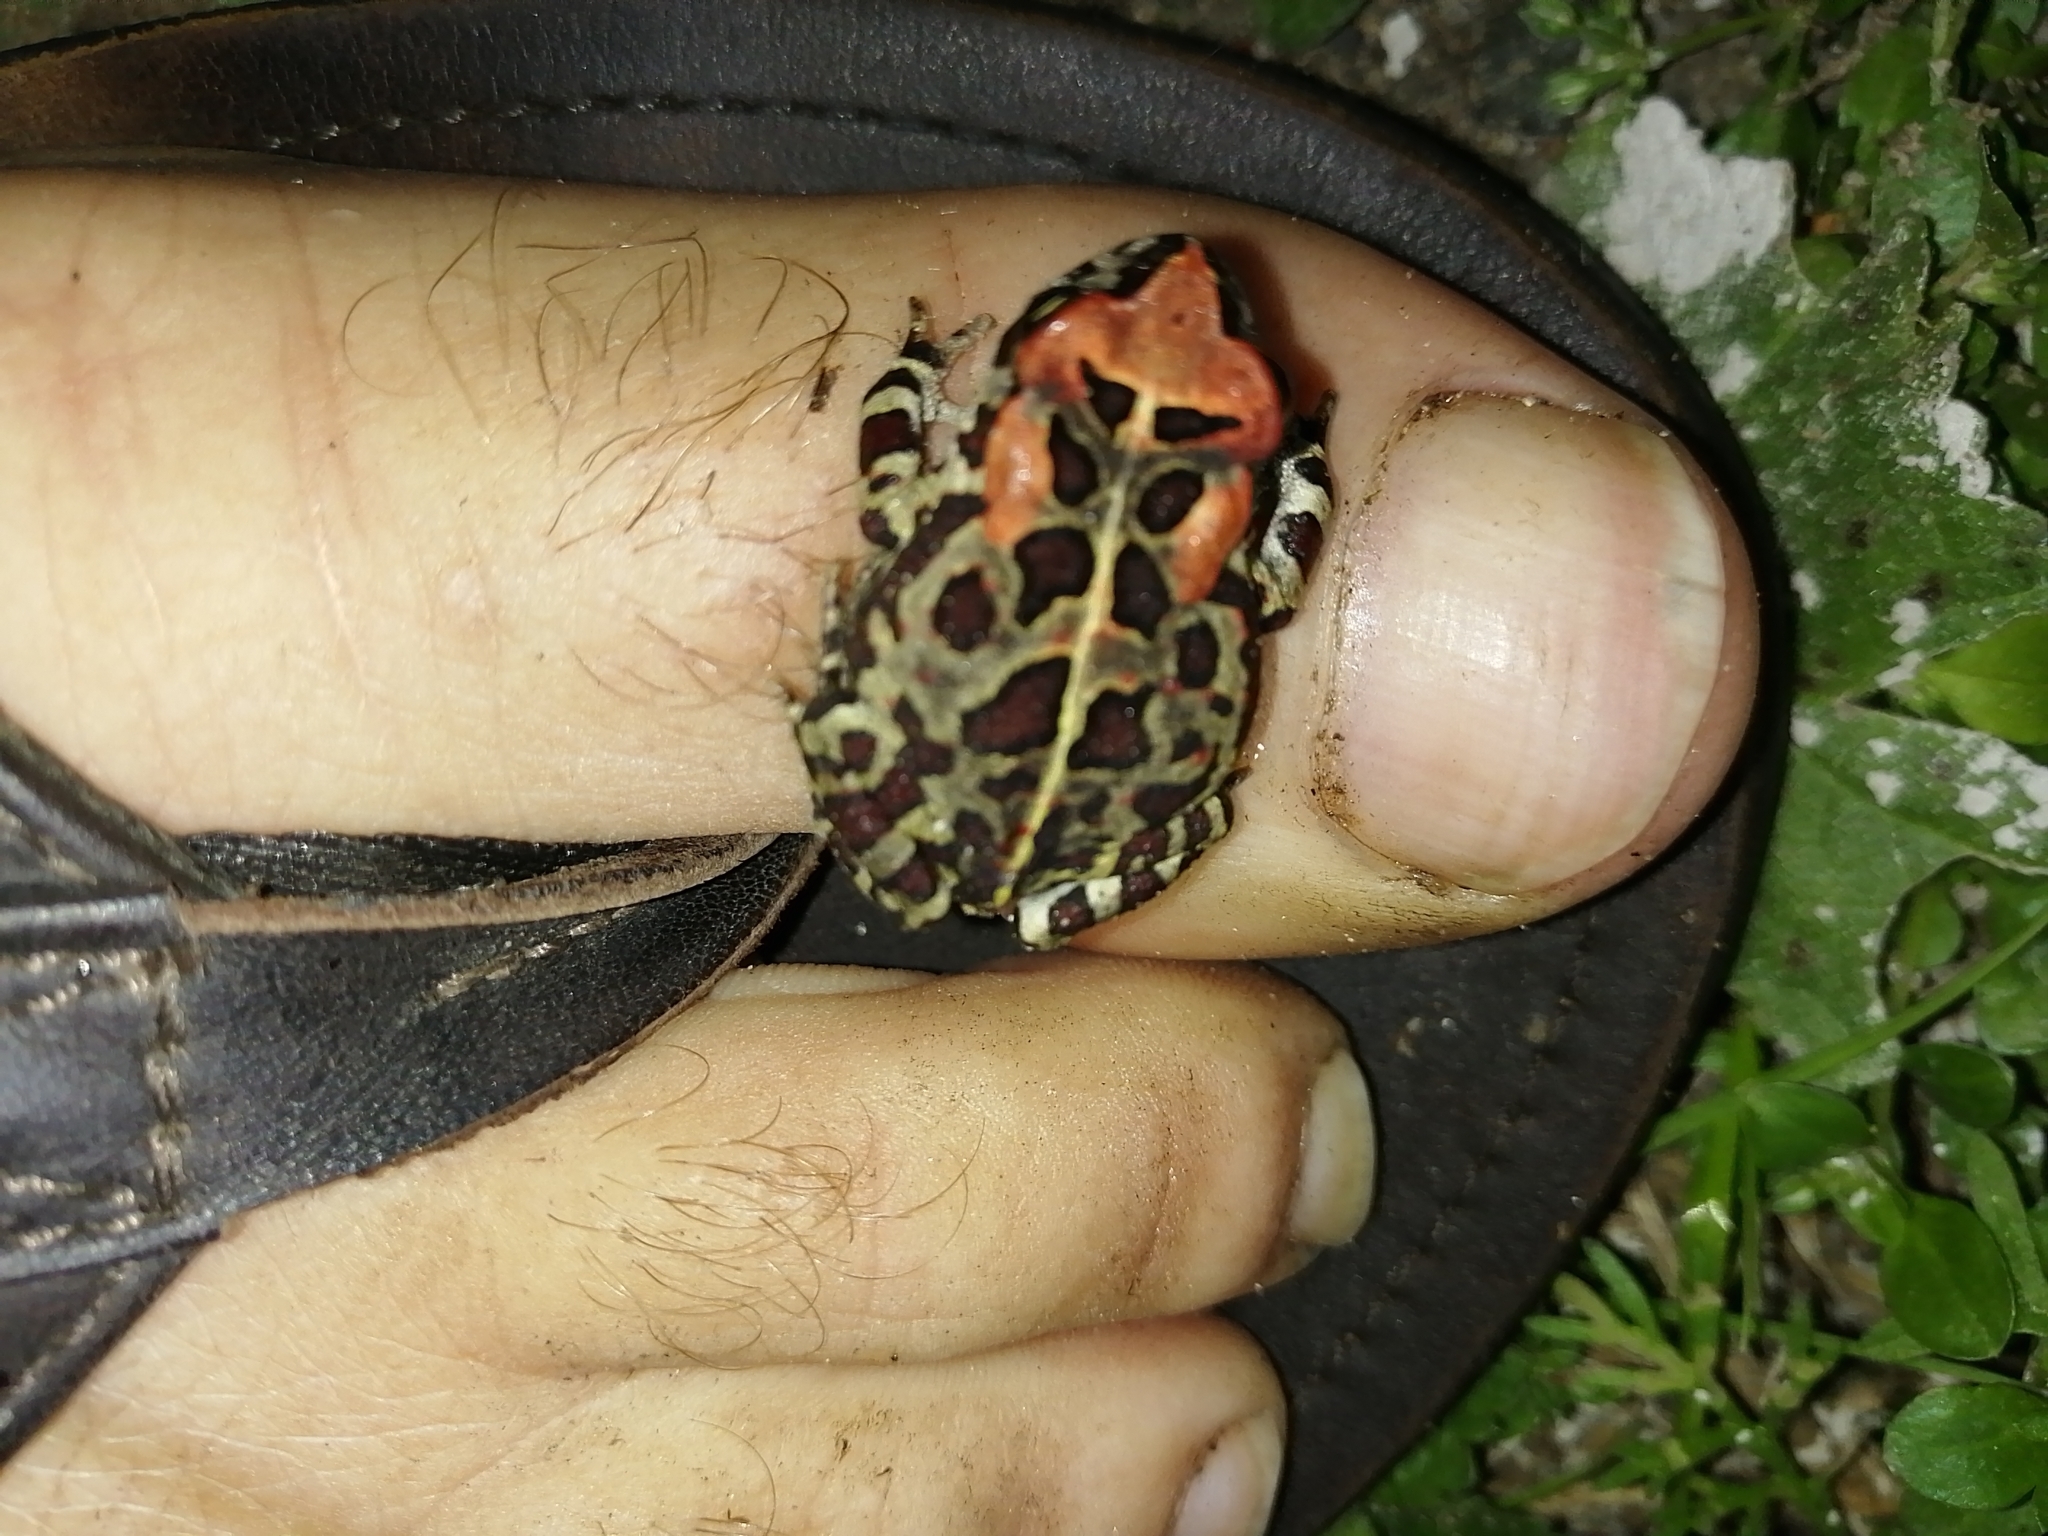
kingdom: Animalia
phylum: Chordata
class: Amphibia
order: Anura
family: Bufonidae
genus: Sclerophrys
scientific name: Sclerophrys pantherina
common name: Panther toad
